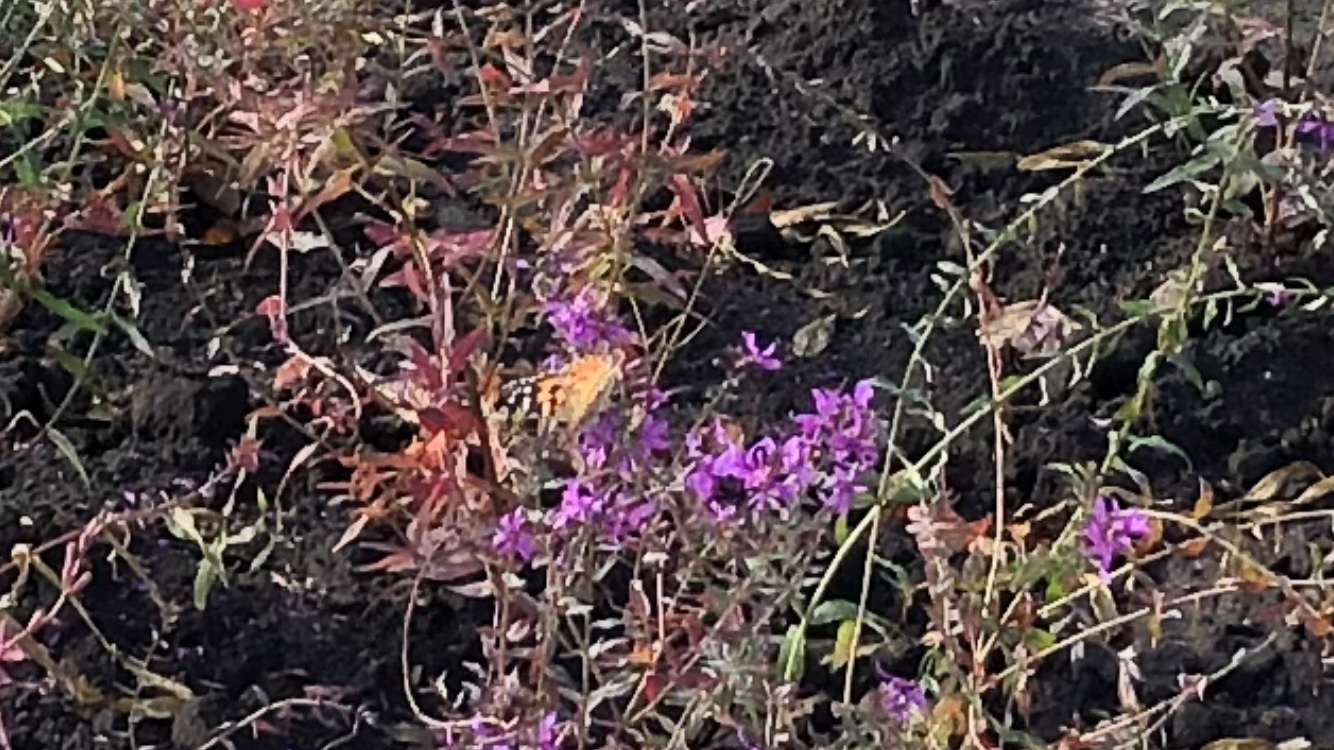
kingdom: Animalia
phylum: Arthropoda
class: Insecta
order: Lepidoptera
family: Nymphalidae
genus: Vanessa
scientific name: Vanessa cardui
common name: Painted lady
